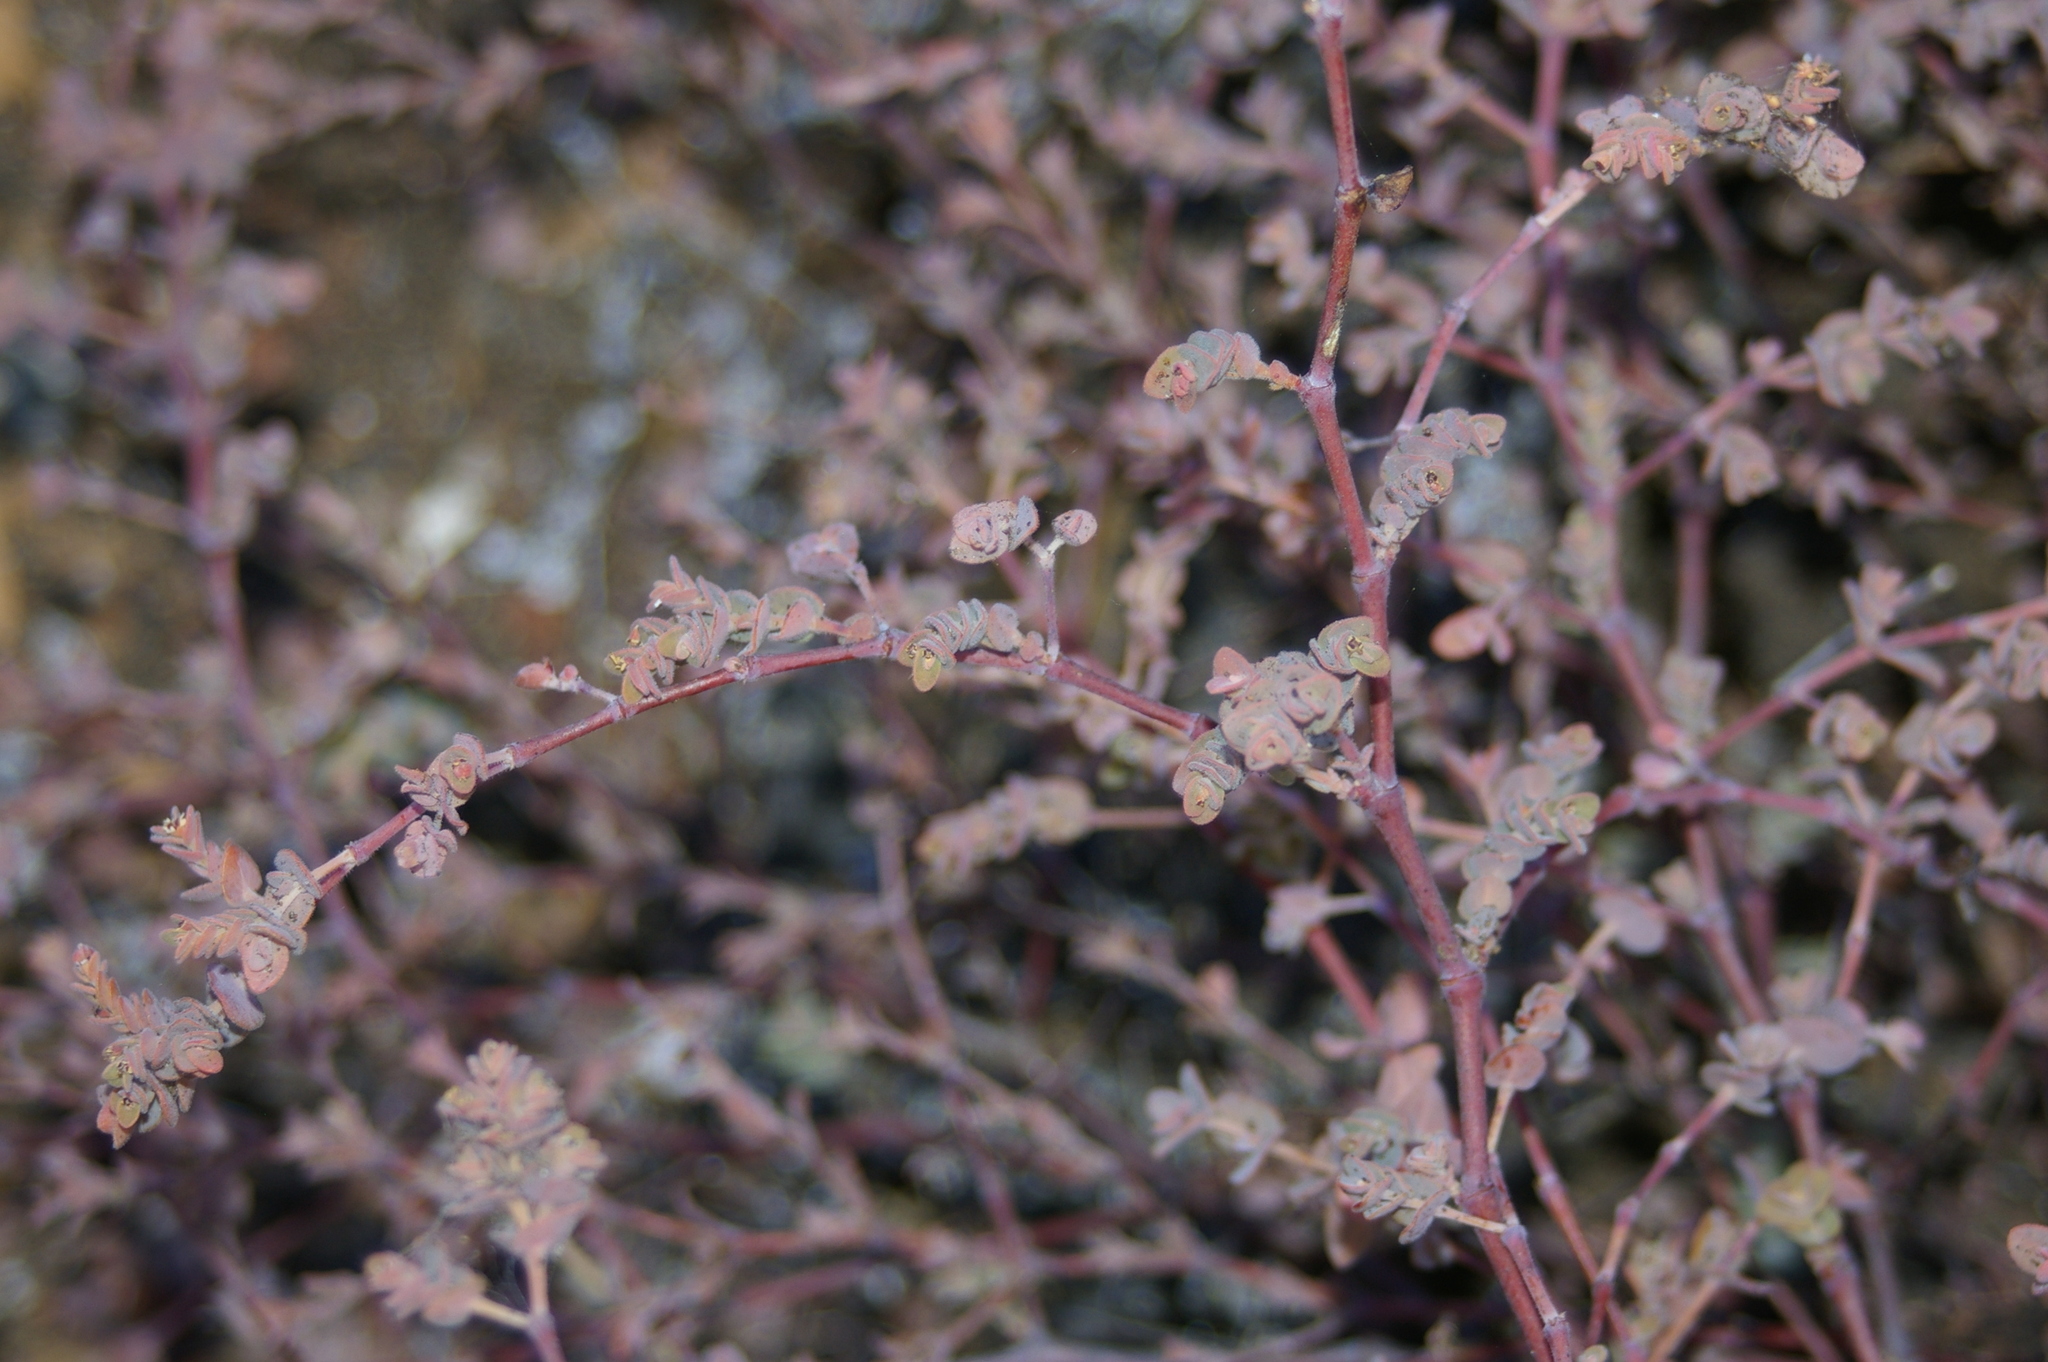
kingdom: Plantae
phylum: Tracheophyta
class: Magnoliopsida
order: Malpighiales
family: Euphorbiaceae
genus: Euphorbia
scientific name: Euphorbia amplexicaulis
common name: Chamaesyce
